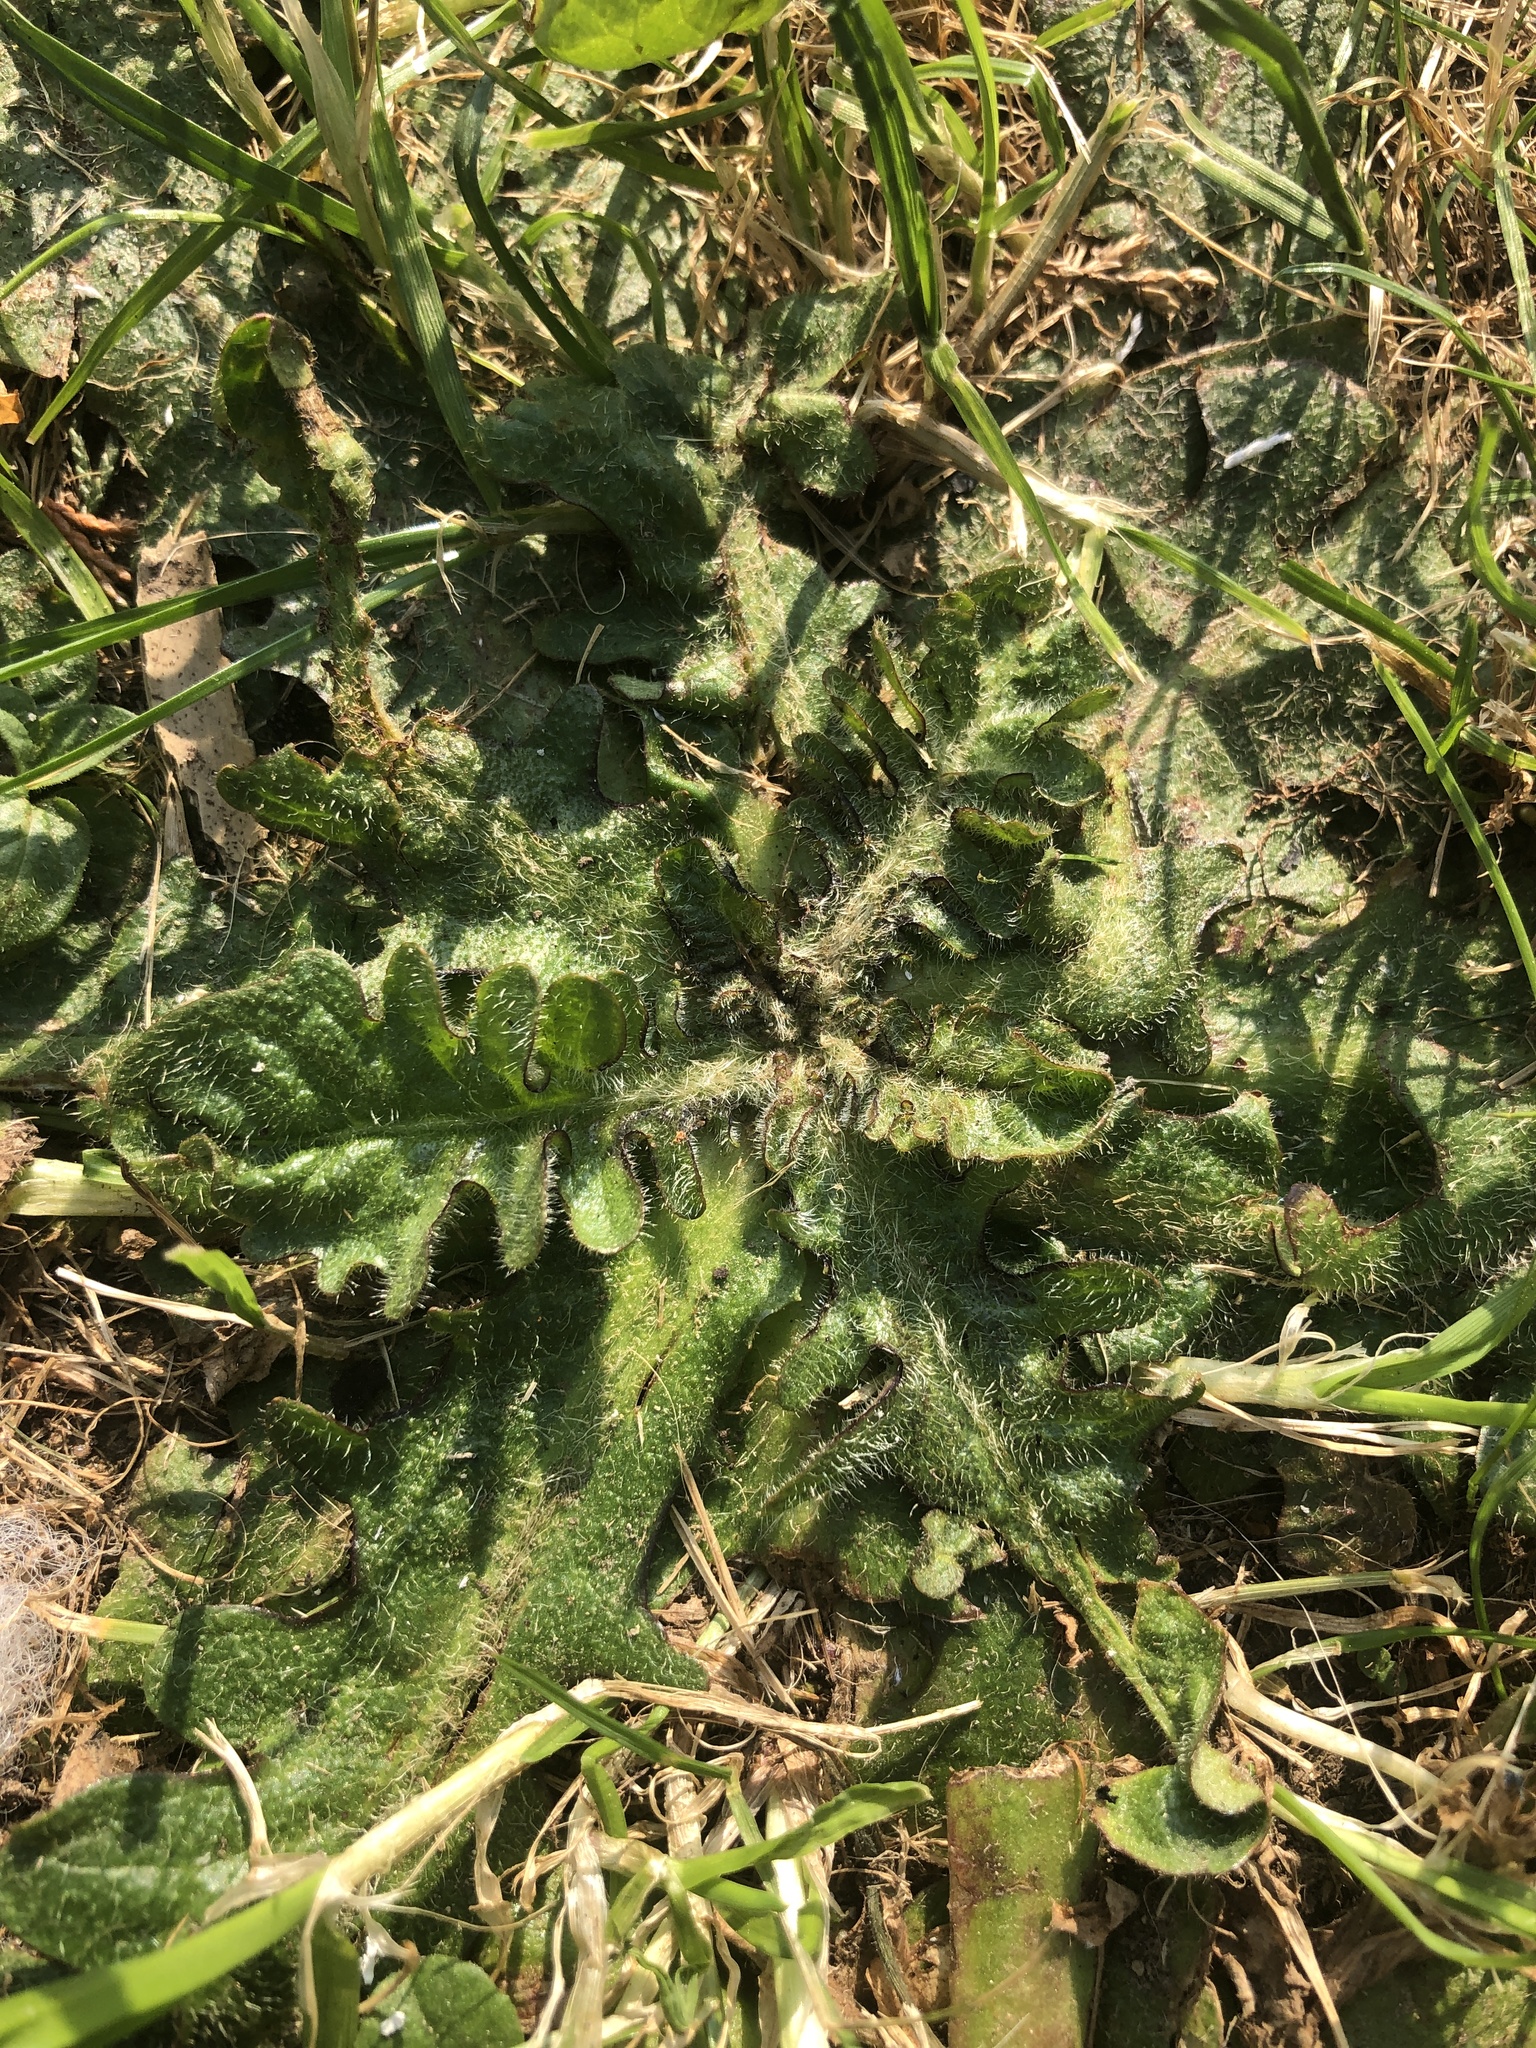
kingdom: Plantae
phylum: Tracheophyta
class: Magnoliopsida
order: Asterales
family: Asteraceae
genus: Hypochaeris
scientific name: Hypochaeris radicata
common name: Flatweed
